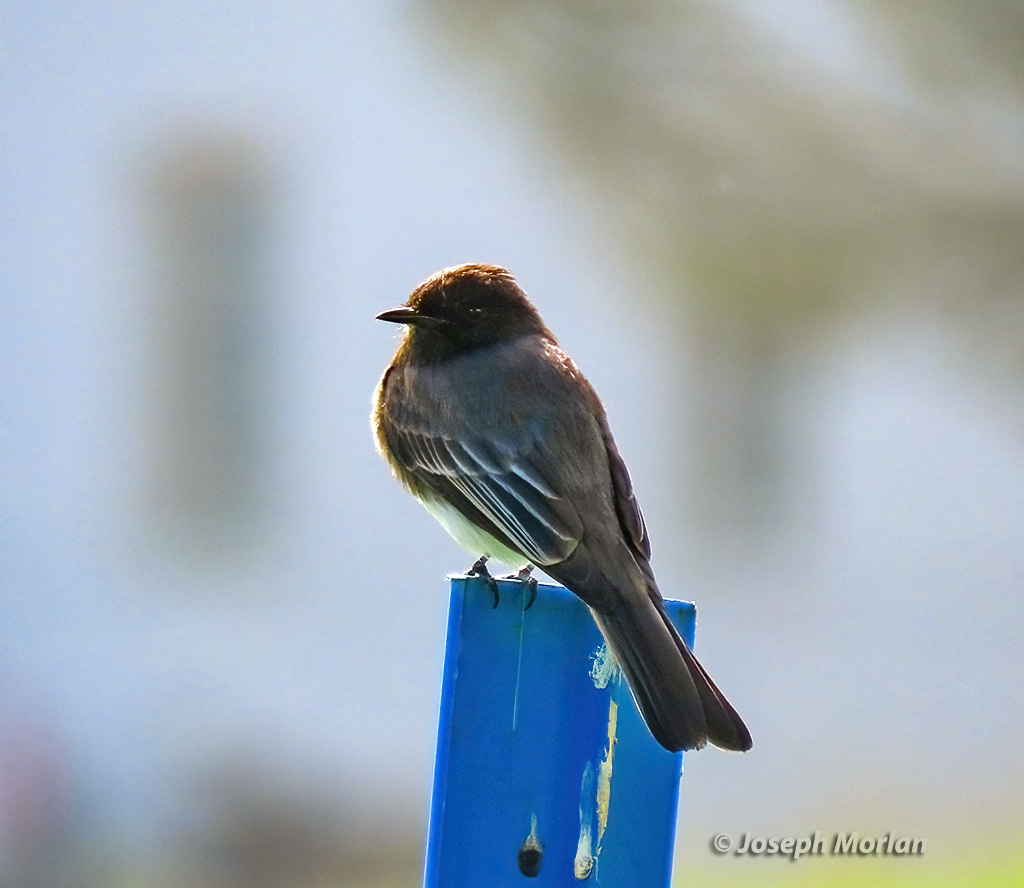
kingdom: Animalia
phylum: Chordata
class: Aves
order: Passeriformes
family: Tyrannidae
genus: Sayornis
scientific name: Sayornis nigricans
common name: Black phoebe
